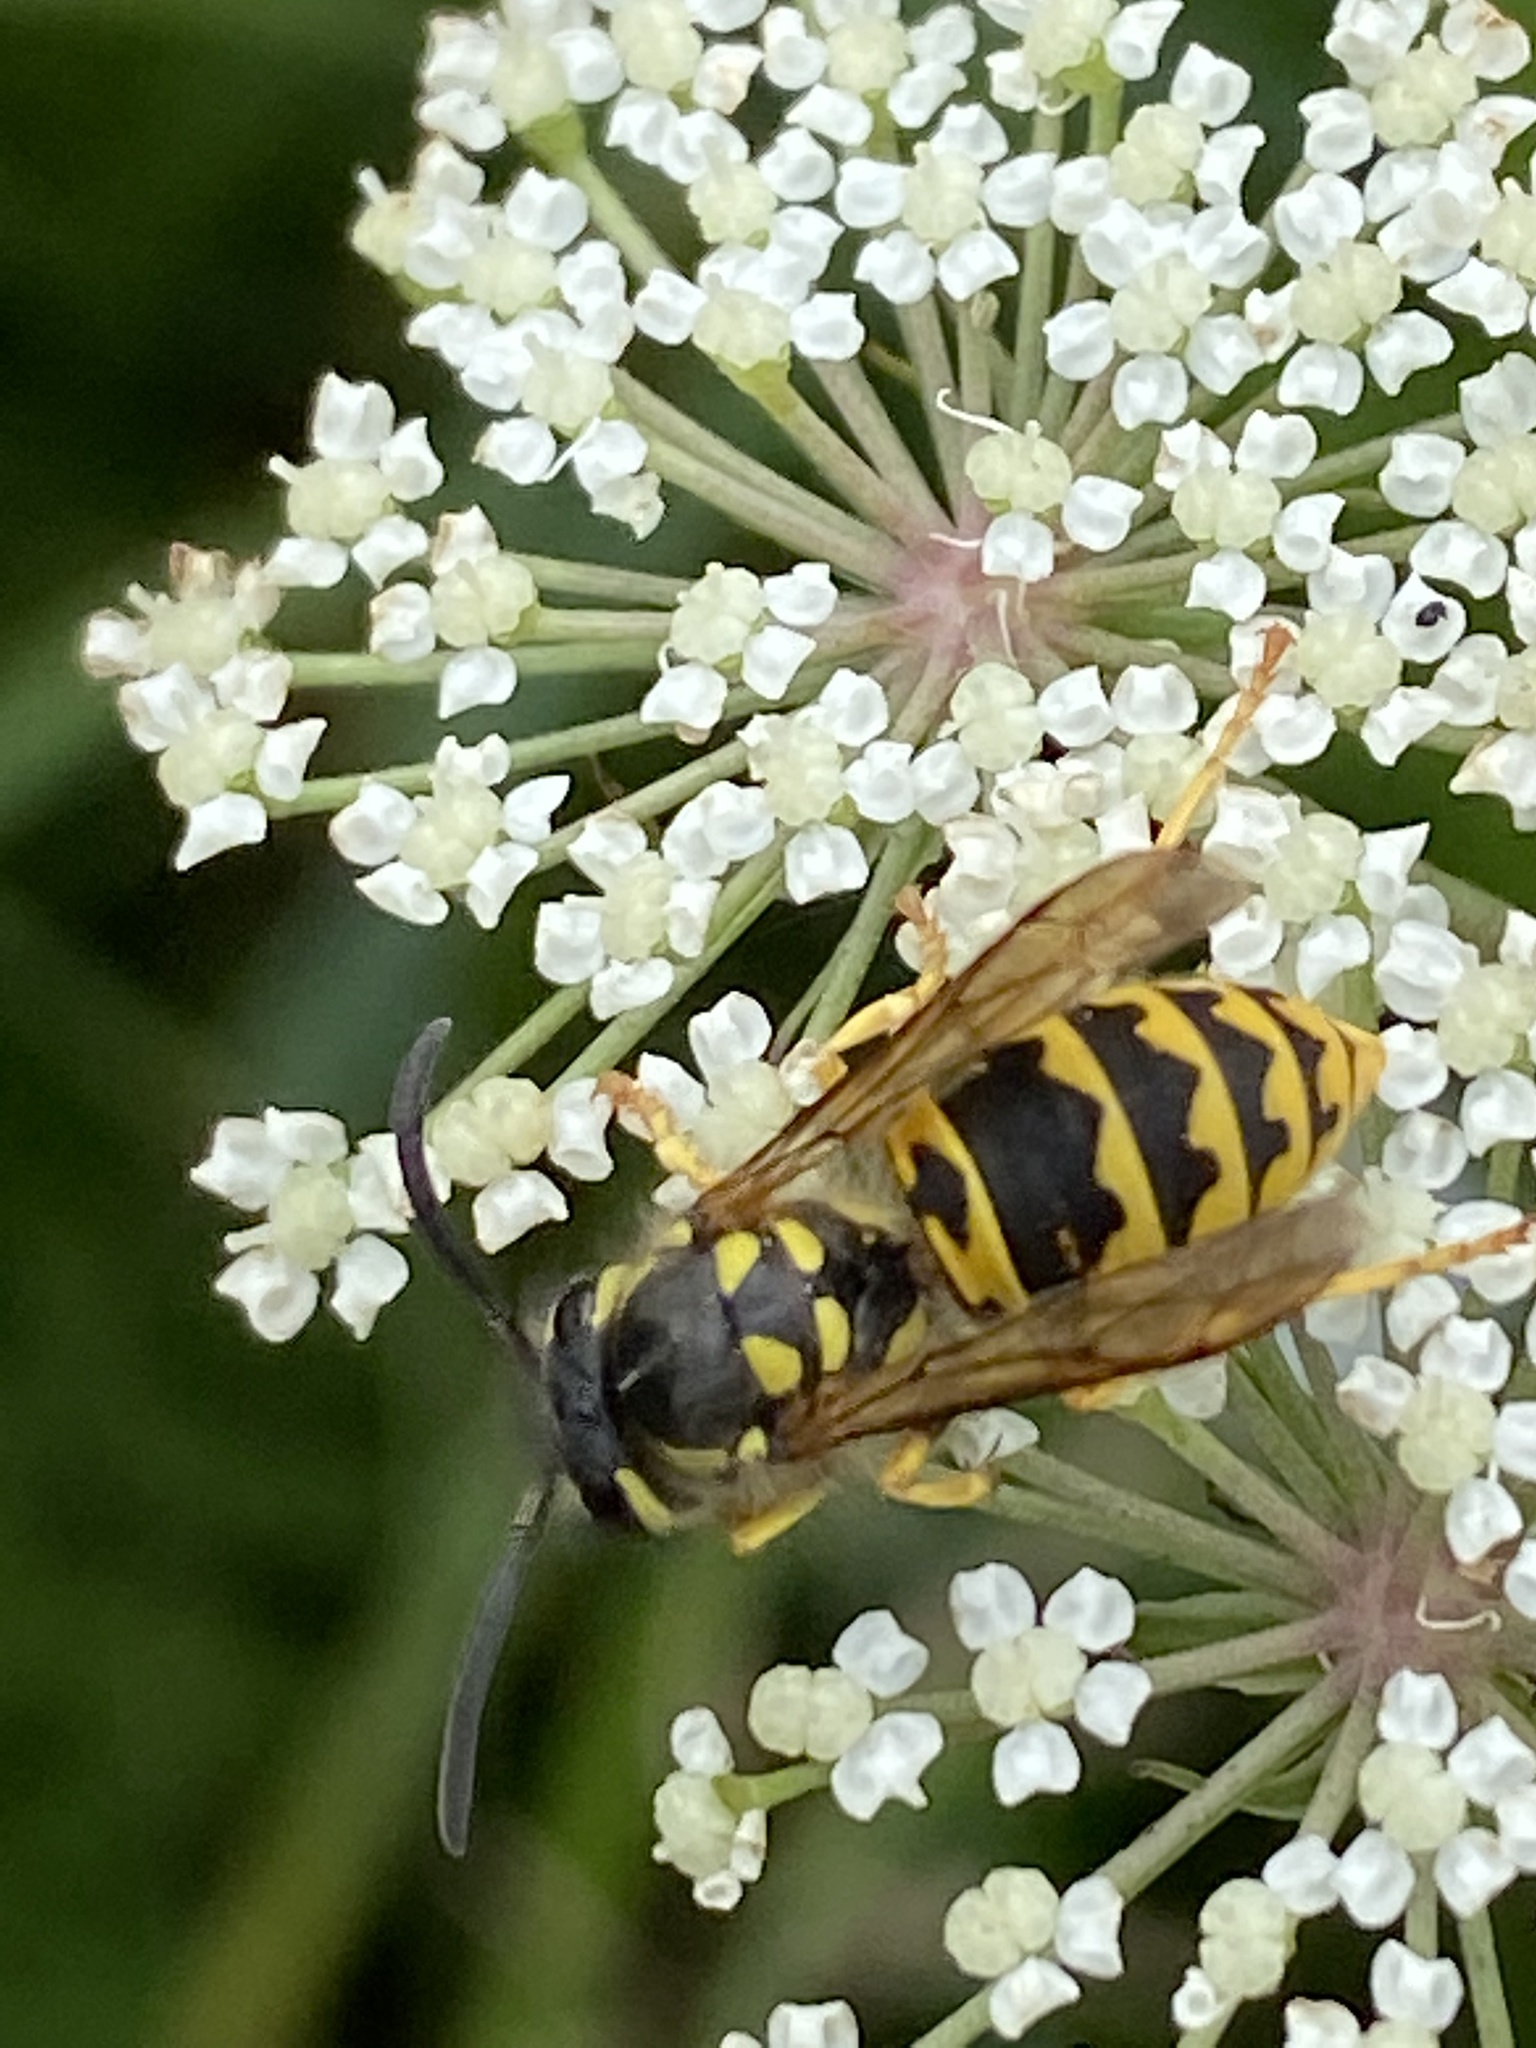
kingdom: Animalia
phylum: Arthropoda
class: Insecta
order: Hymenoptera
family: Vespidae
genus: Vespula
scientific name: Vespula germanica
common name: German wasp
